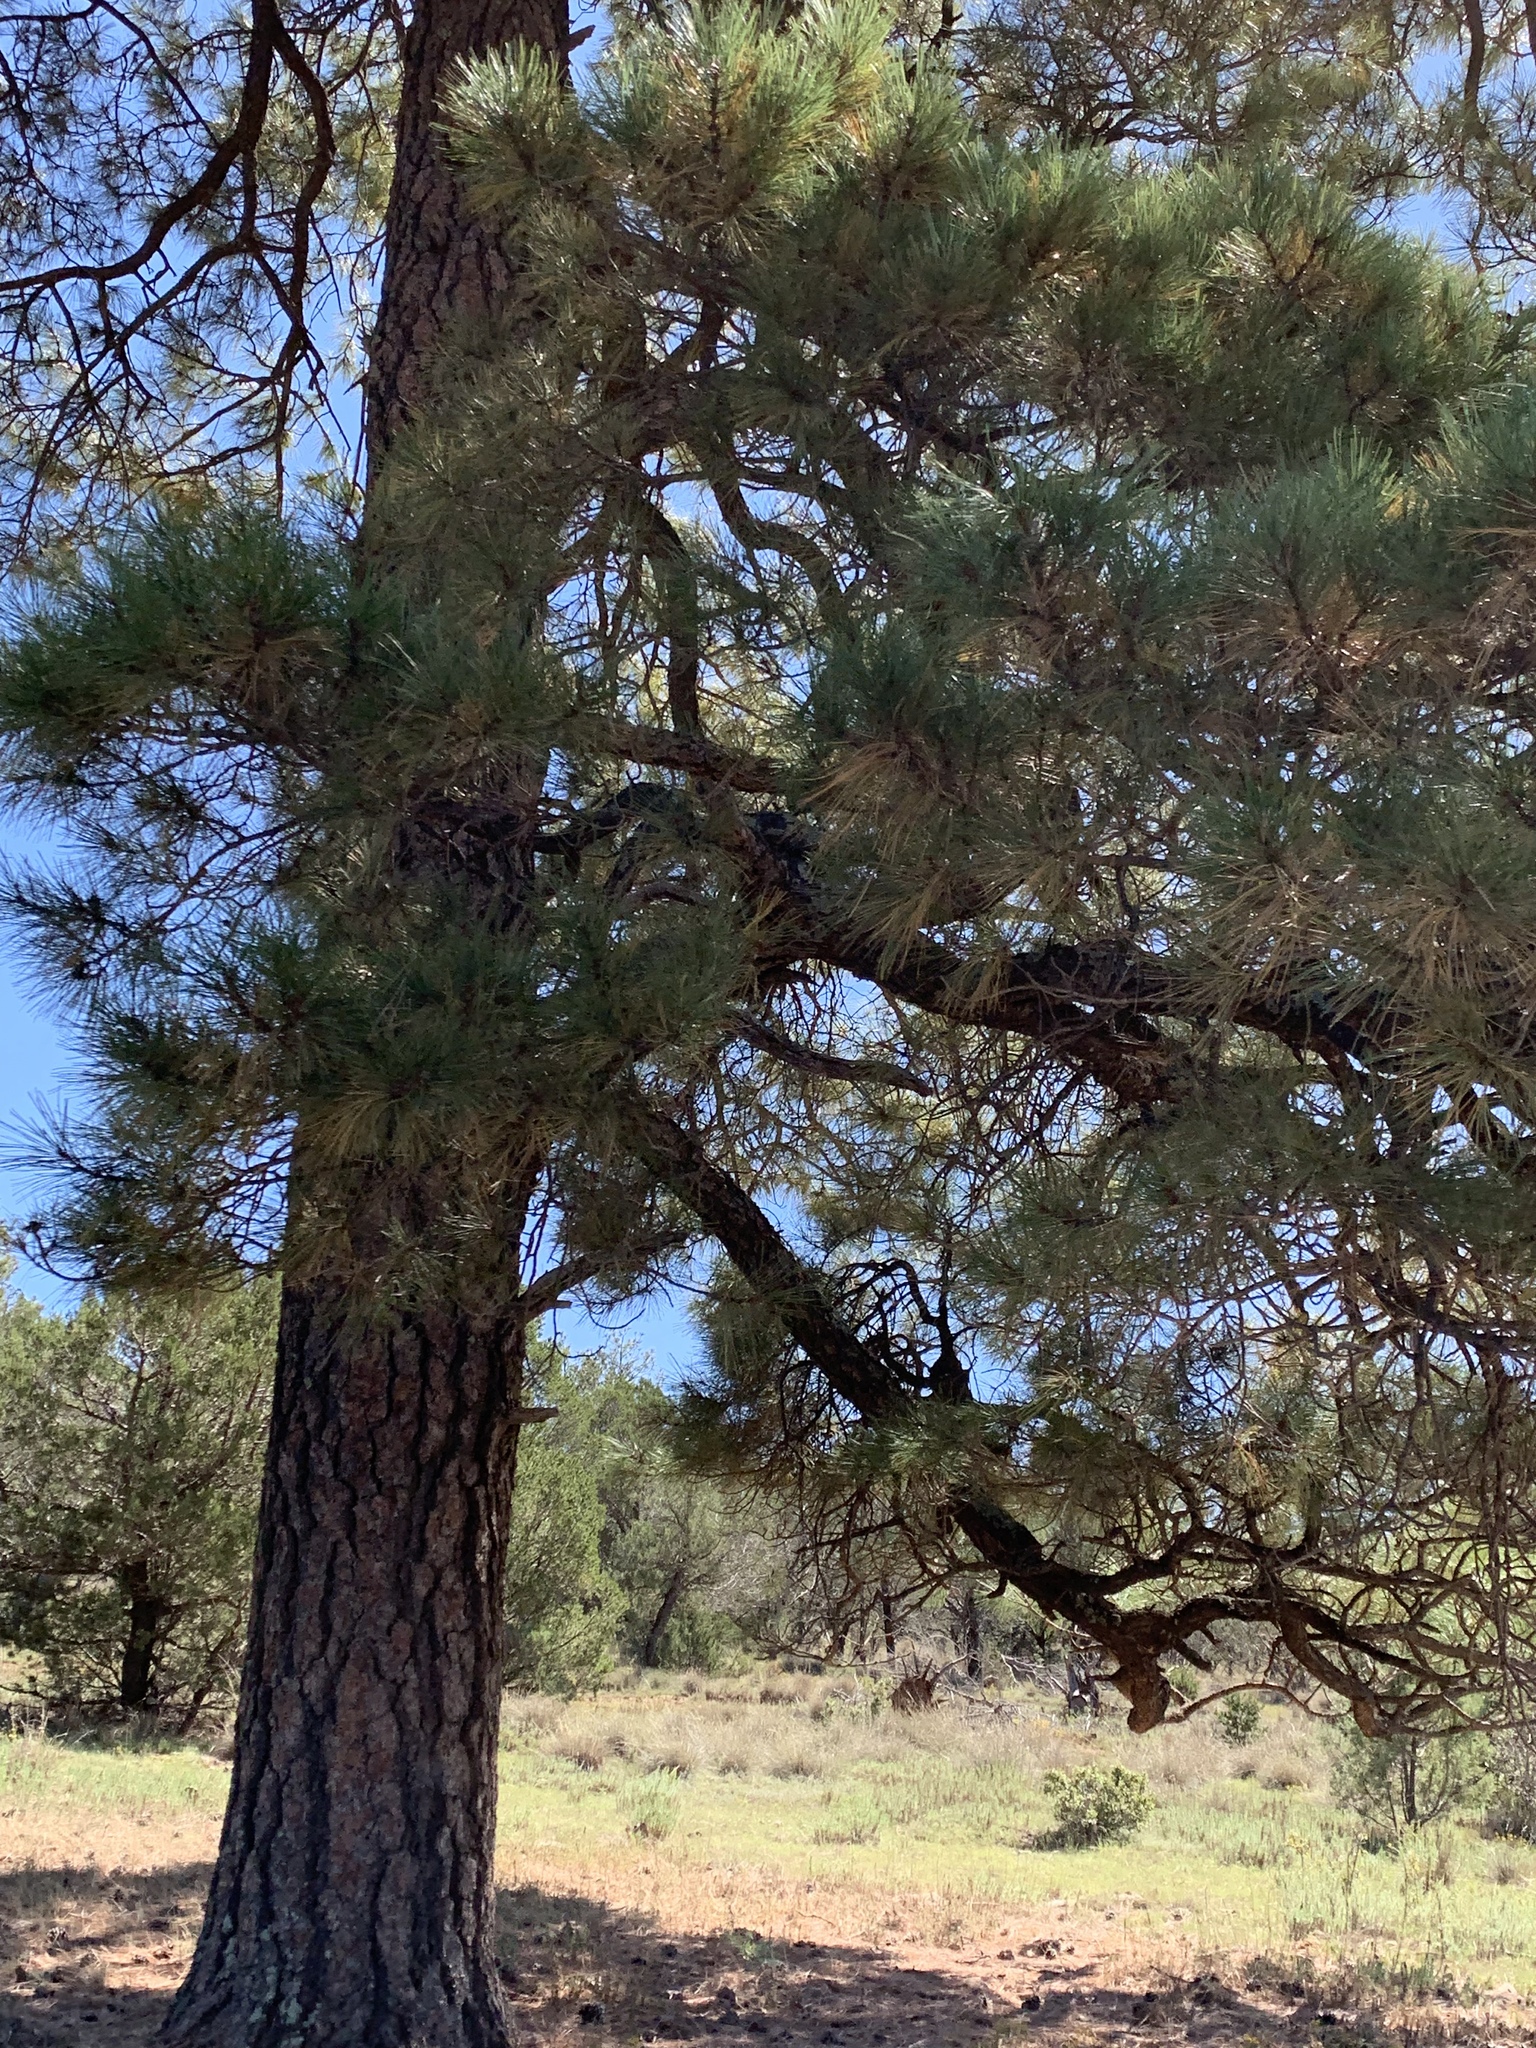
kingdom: Plantae
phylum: Tracheophyta
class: Pinopsida
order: Pinales
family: Pinaceae
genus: Pinus
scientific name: Pinus ponderosa
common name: Western yellow-pine
